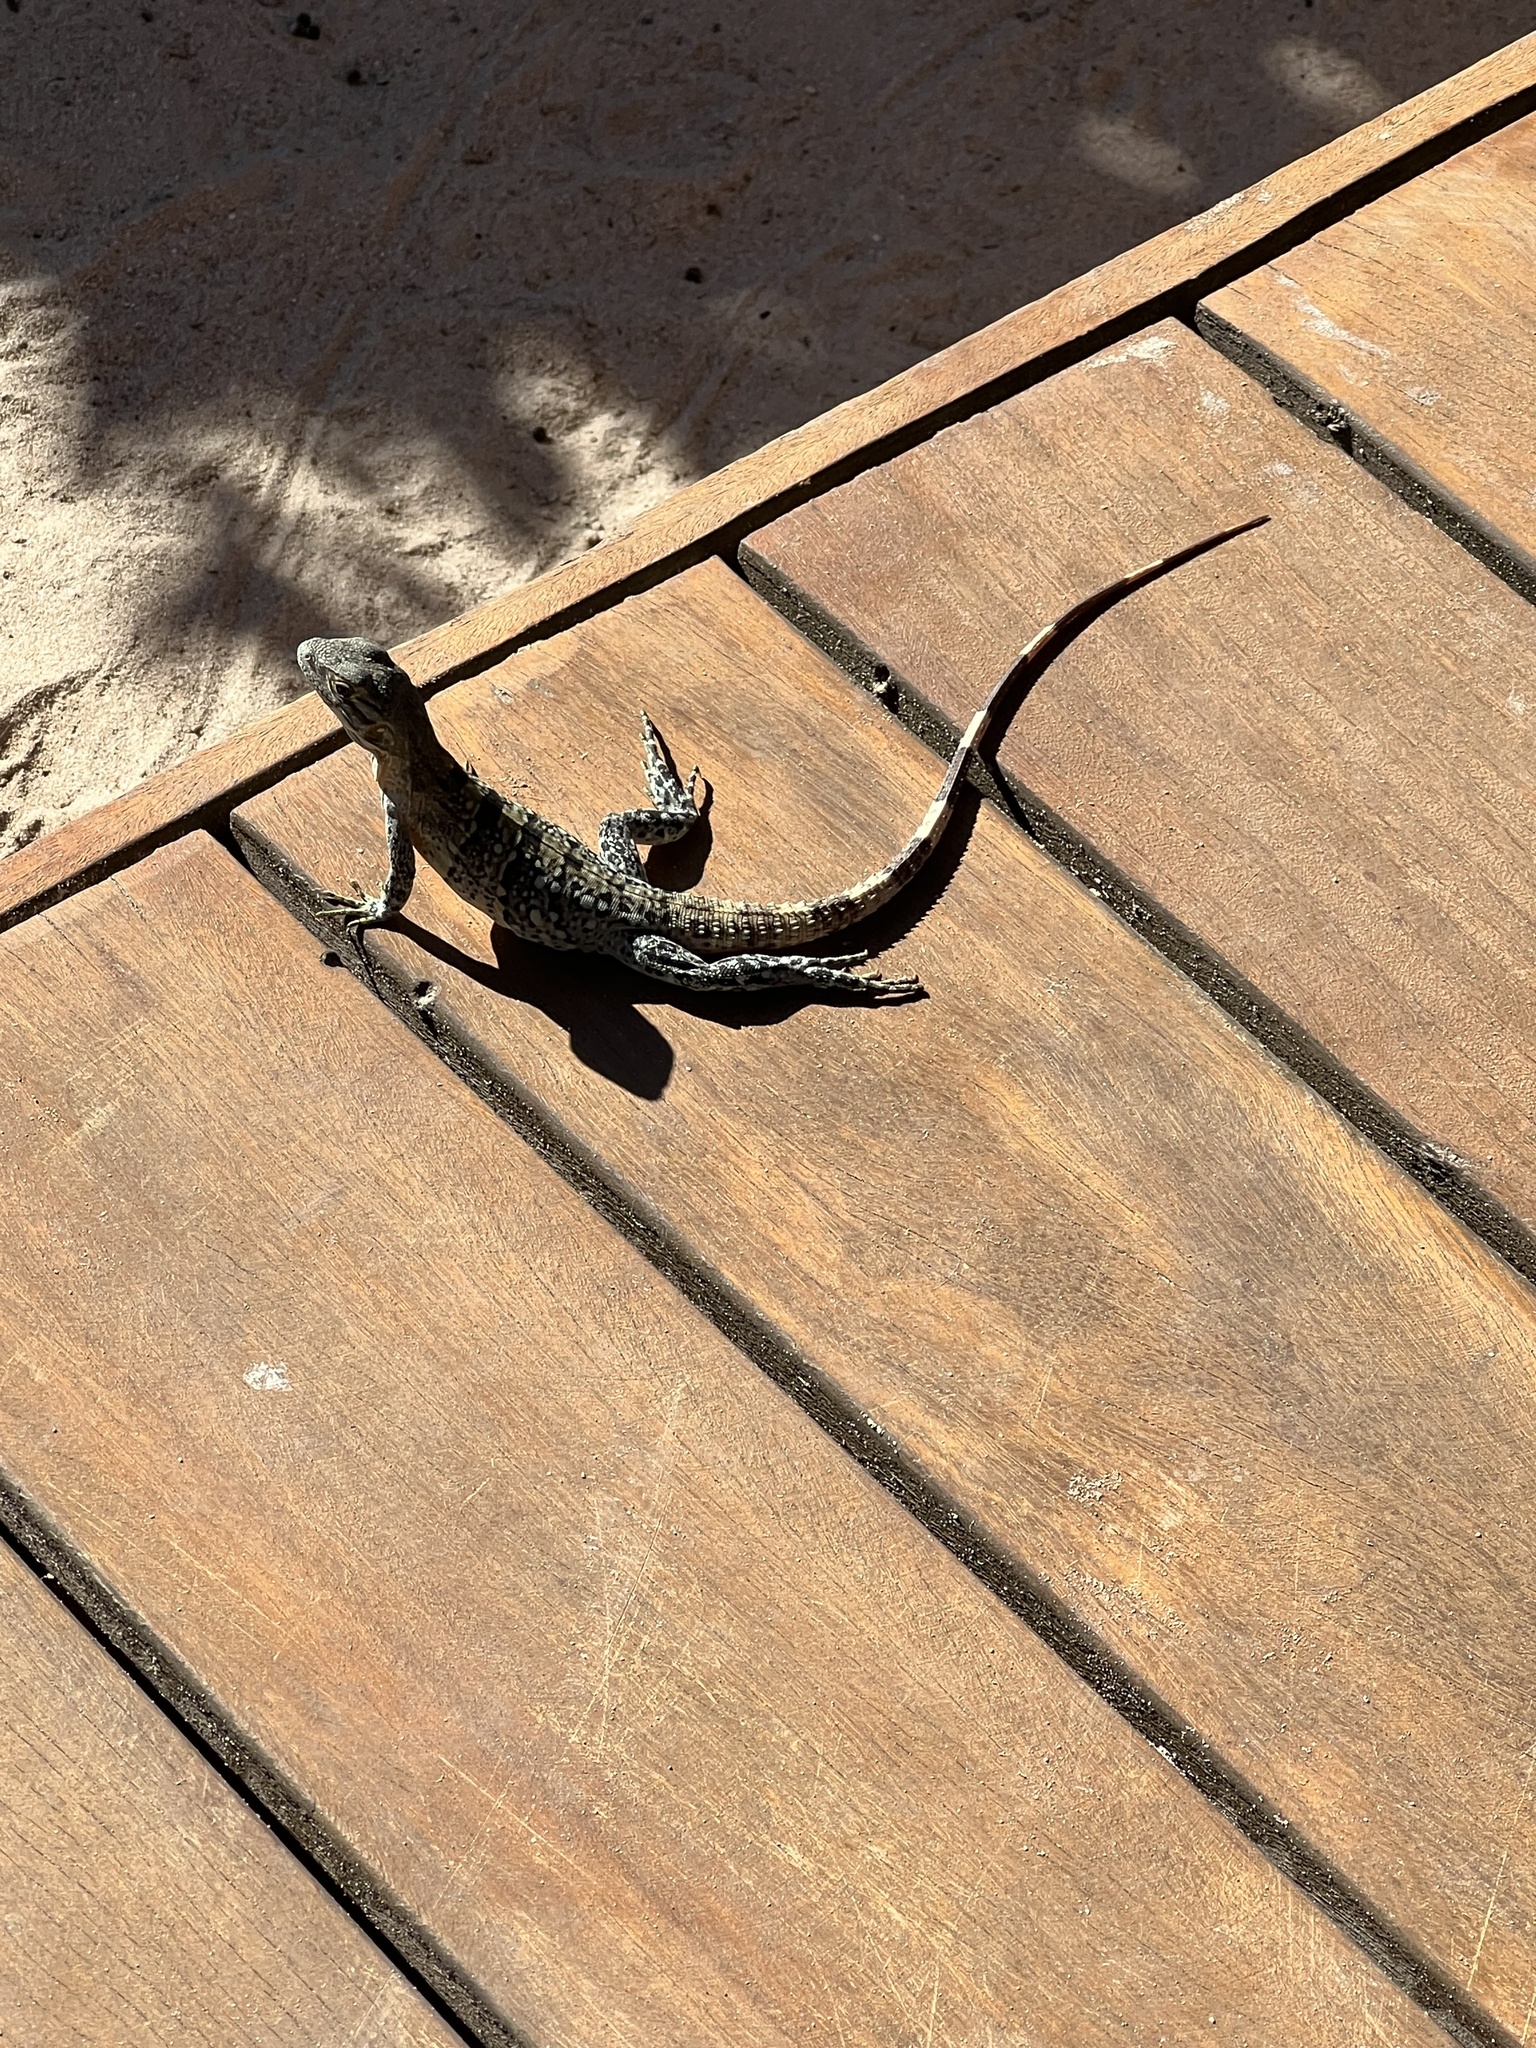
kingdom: Animalia
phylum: Chordata
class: Squamata
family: Iguanidae
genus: Ctenosaura
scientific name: Ctenosaura similis
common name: Black spiny-tailed iguana
